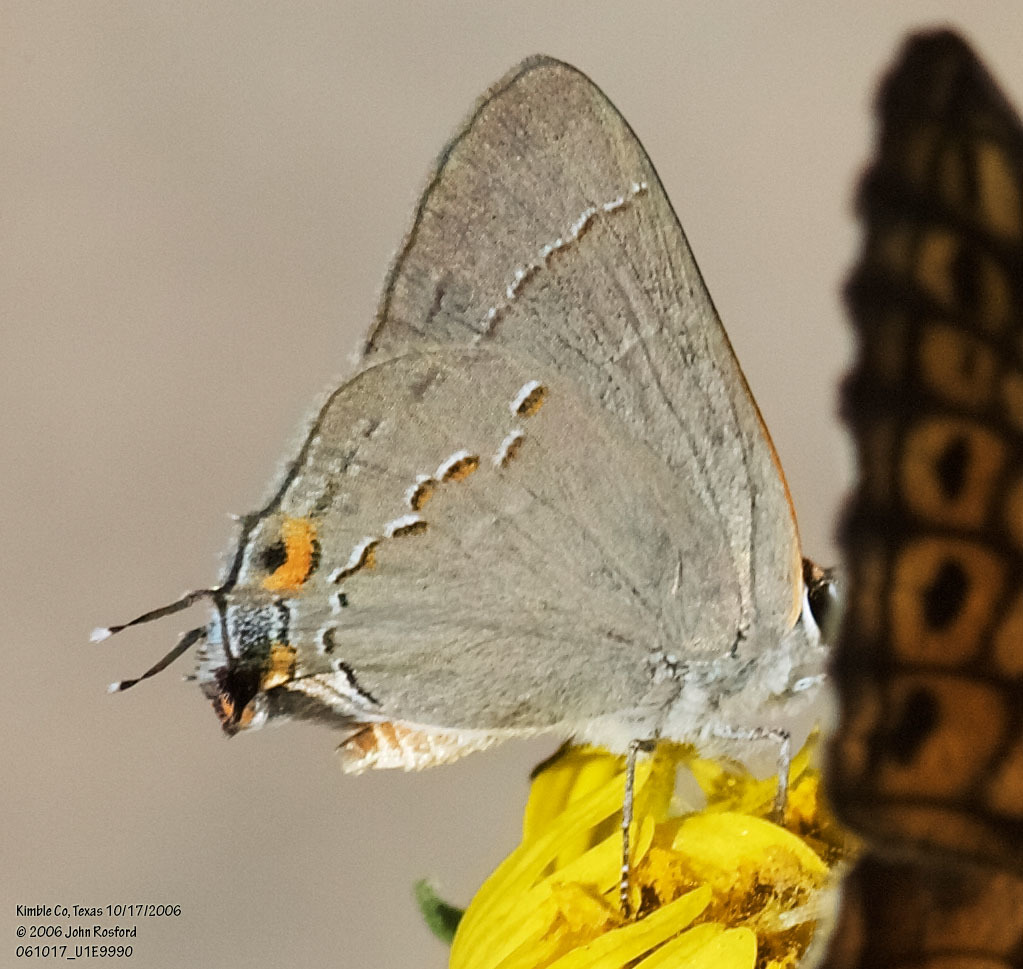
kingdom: Animalia
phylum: Arthropoda
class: Insecta
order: Lepidoptera
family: Lycaenidae
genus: Strymon
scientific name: Strymon melinus
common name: Gray hairstreak
